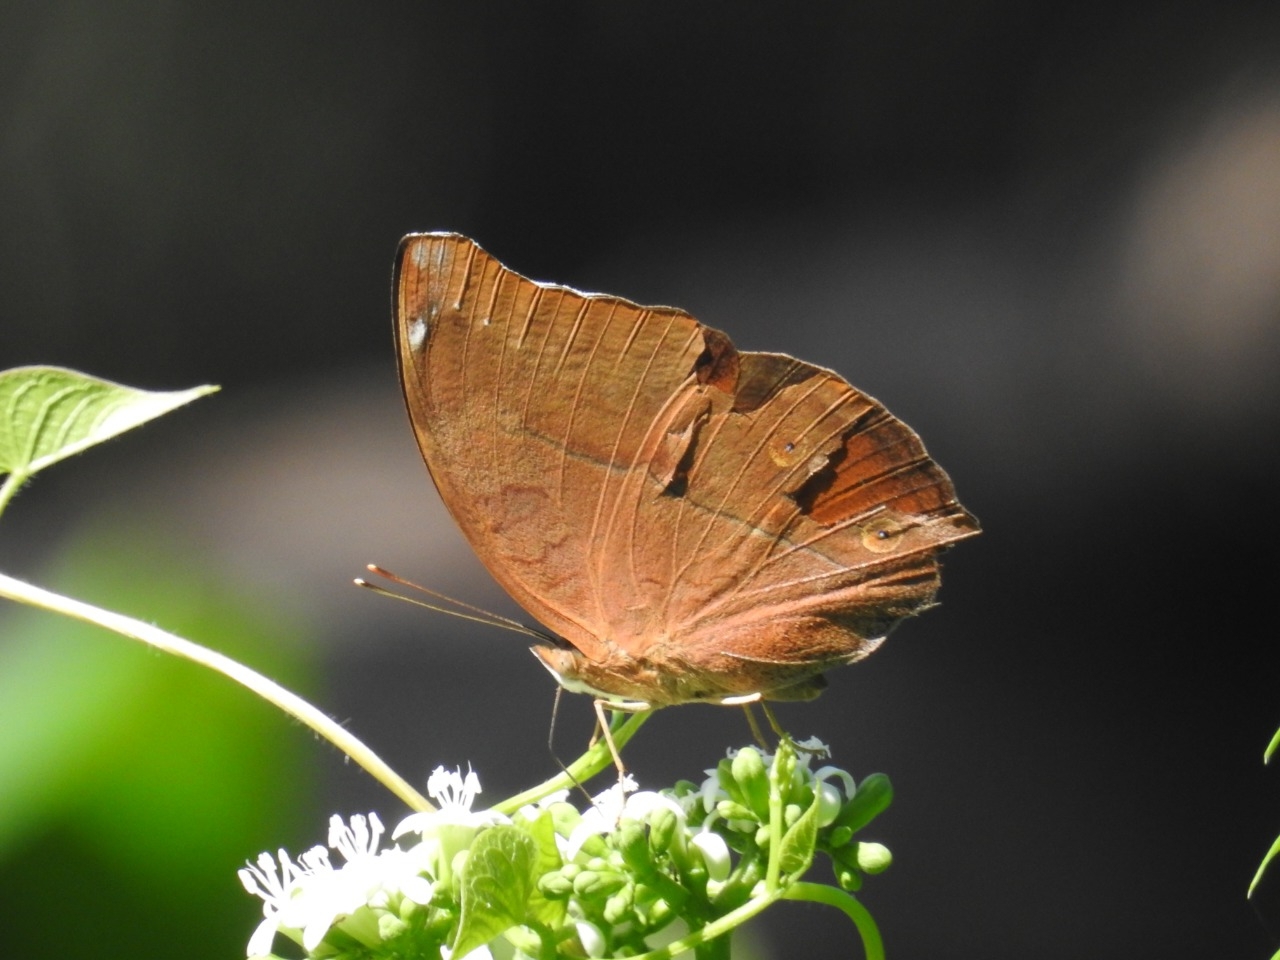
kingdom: Animalia
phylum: Arthropoda
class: Insecta
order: Lepidoptera
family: Nymphalidae
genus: Doleschallia
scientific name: Doleschallia bisaltide
